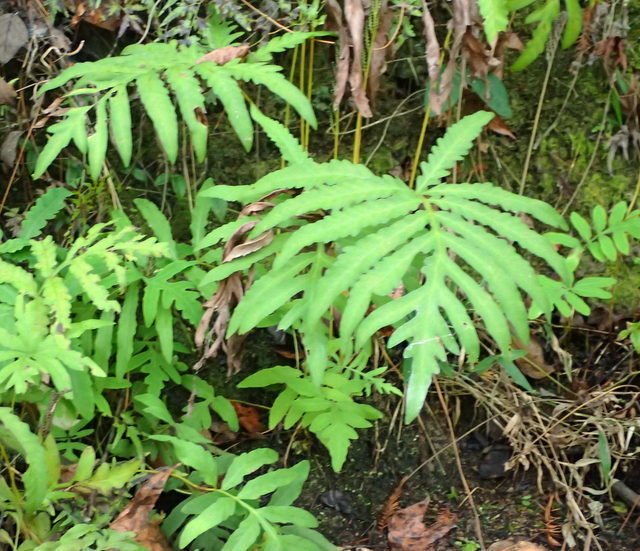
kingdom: Plantae
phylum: Tracheophyta
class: Polypodiopsida
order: Polypodiales
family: Onocleaceae
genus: Onoclea
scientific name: Onoclea sensibilis
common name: Sensitive fern
